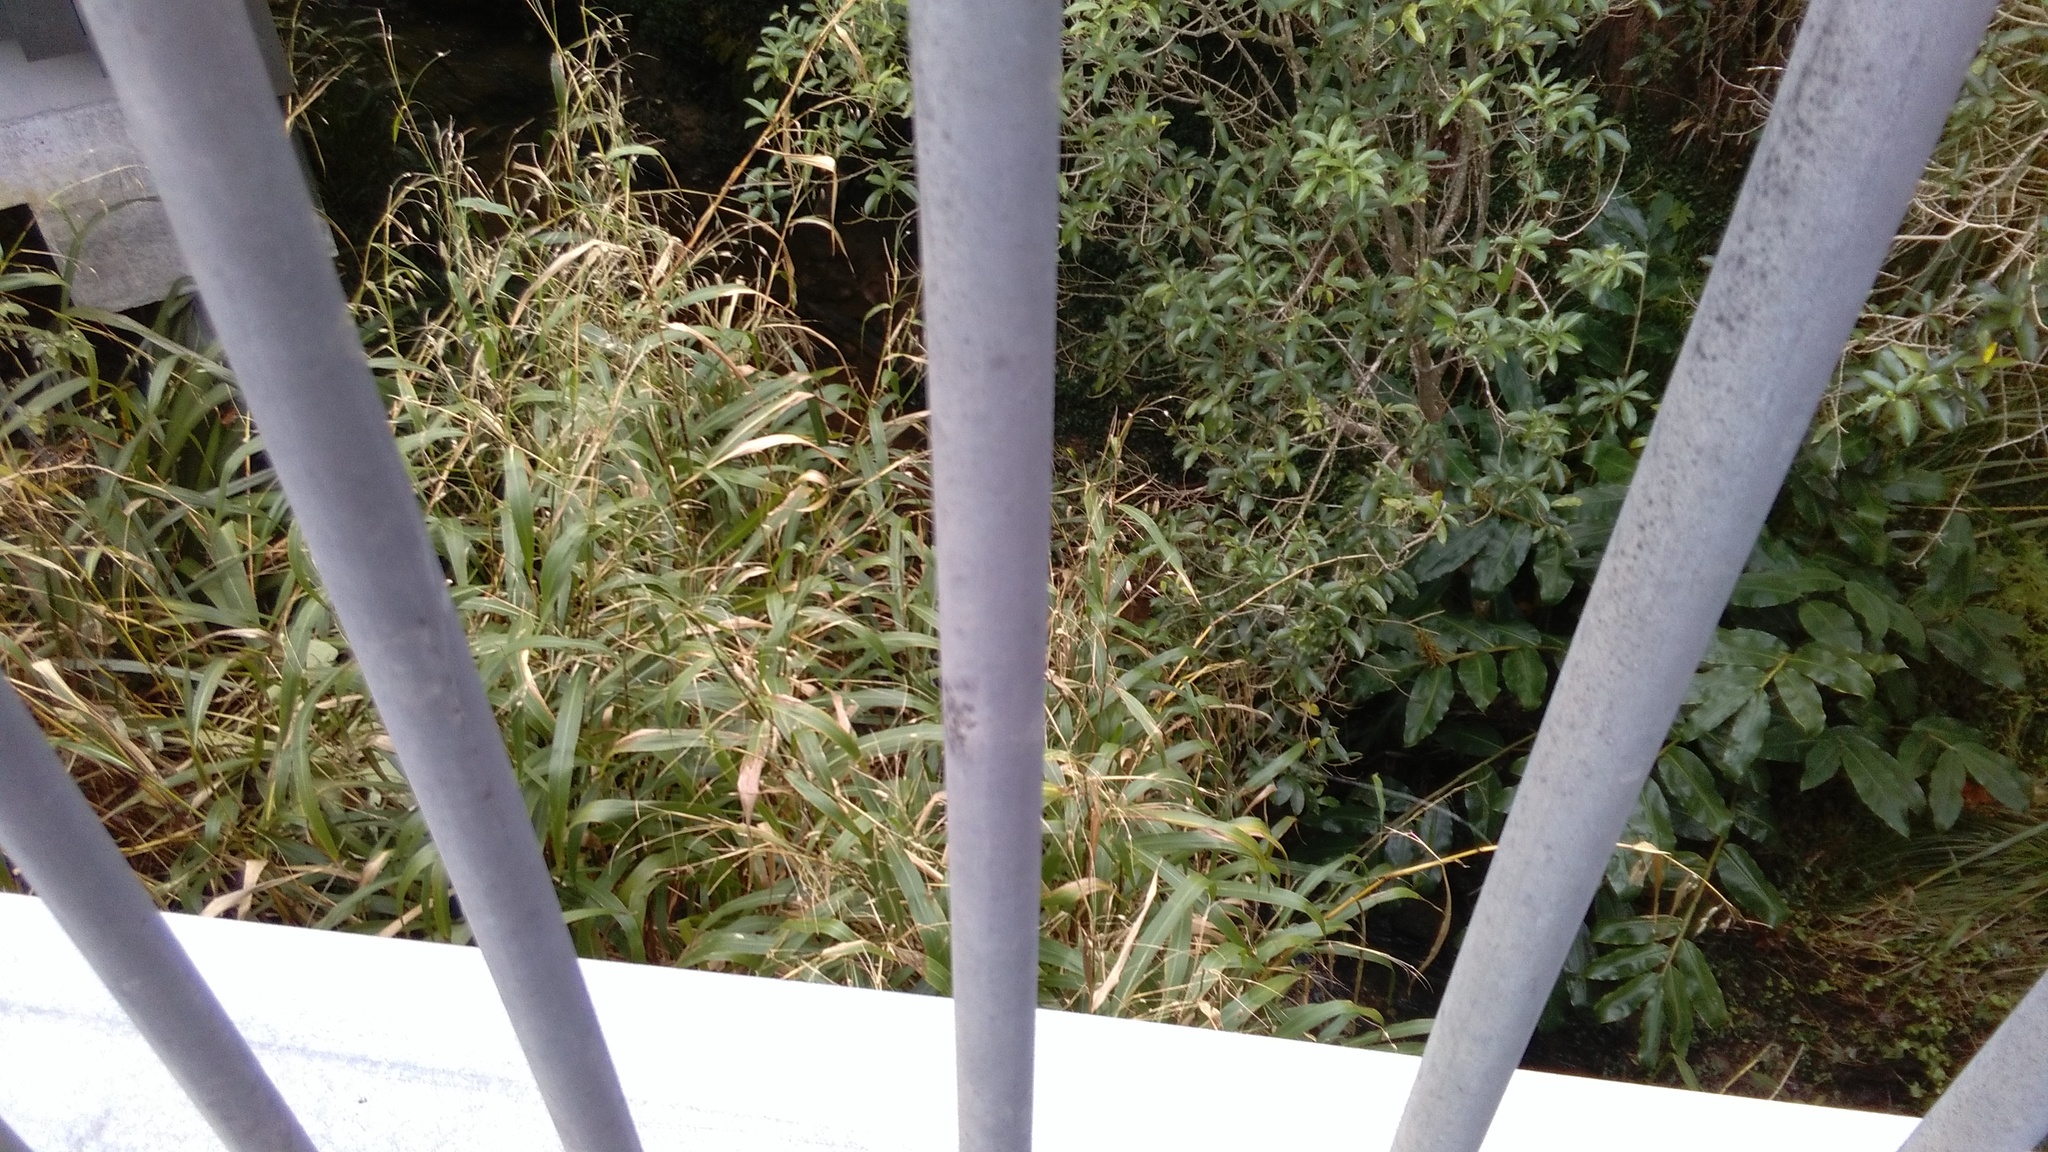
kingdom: Plantae
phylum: Tracheophyta
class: Liliopsida
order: Poales
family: Poaceae
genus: Setaria
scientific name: Setaria palmifolia
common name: Broadleaved bristlegrass
